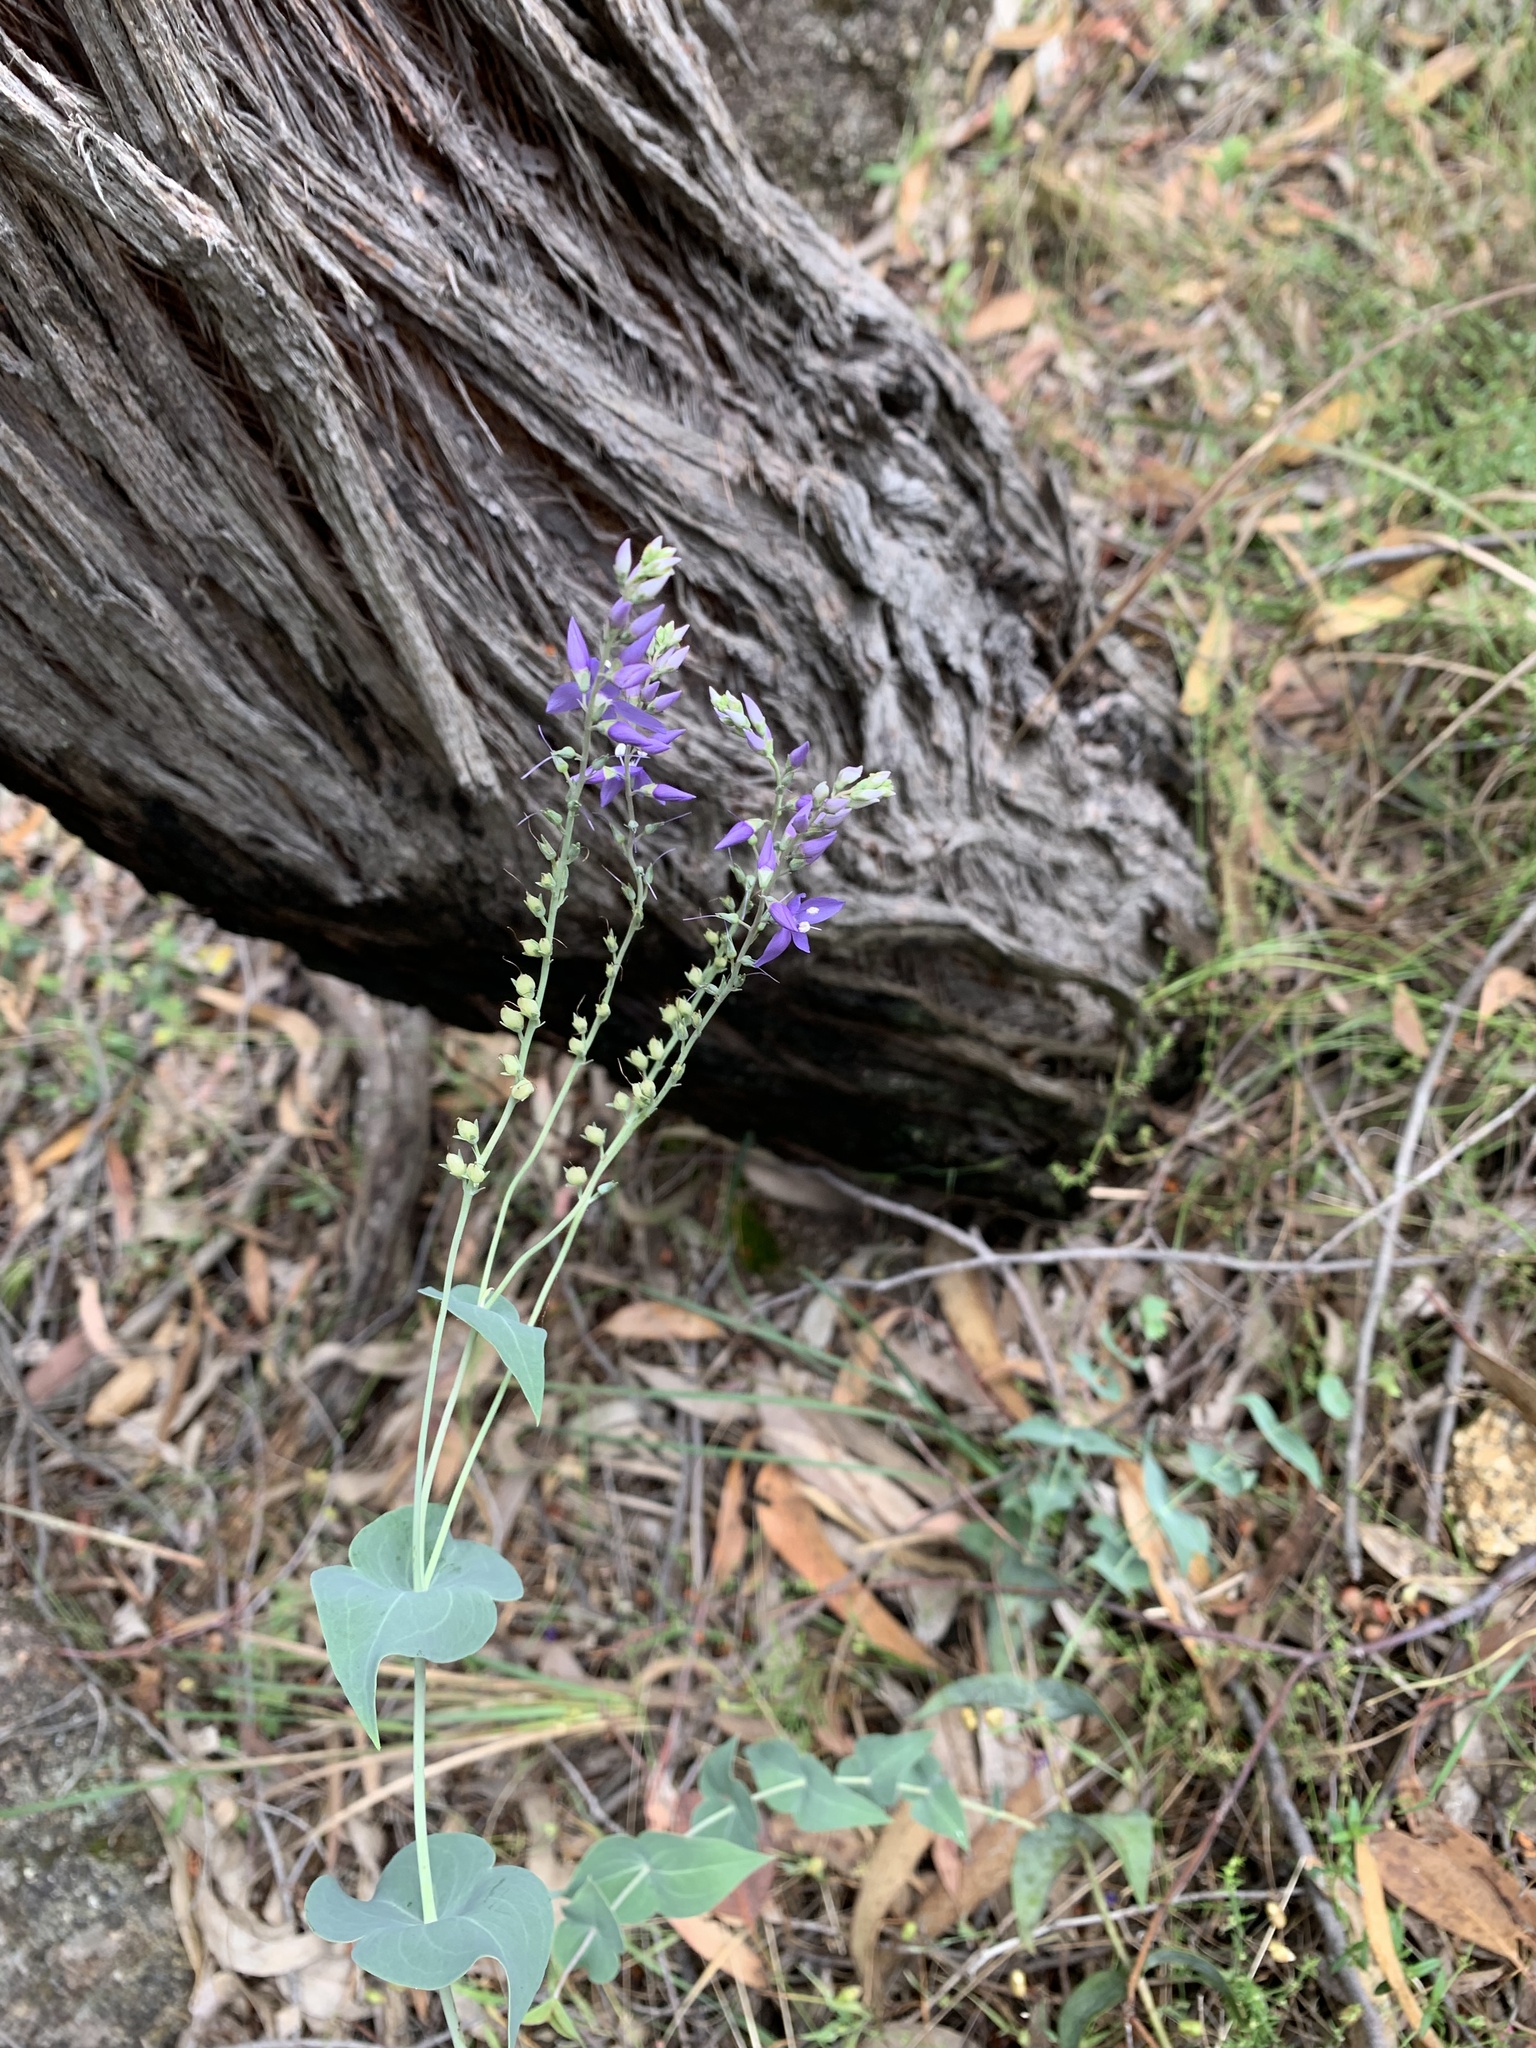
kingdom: Plantae
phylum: Tracheophyta
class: Magnoliopsida
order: Lamiales
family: Plantaginaceae
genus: Veronica
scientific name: Veronica perfoliata
